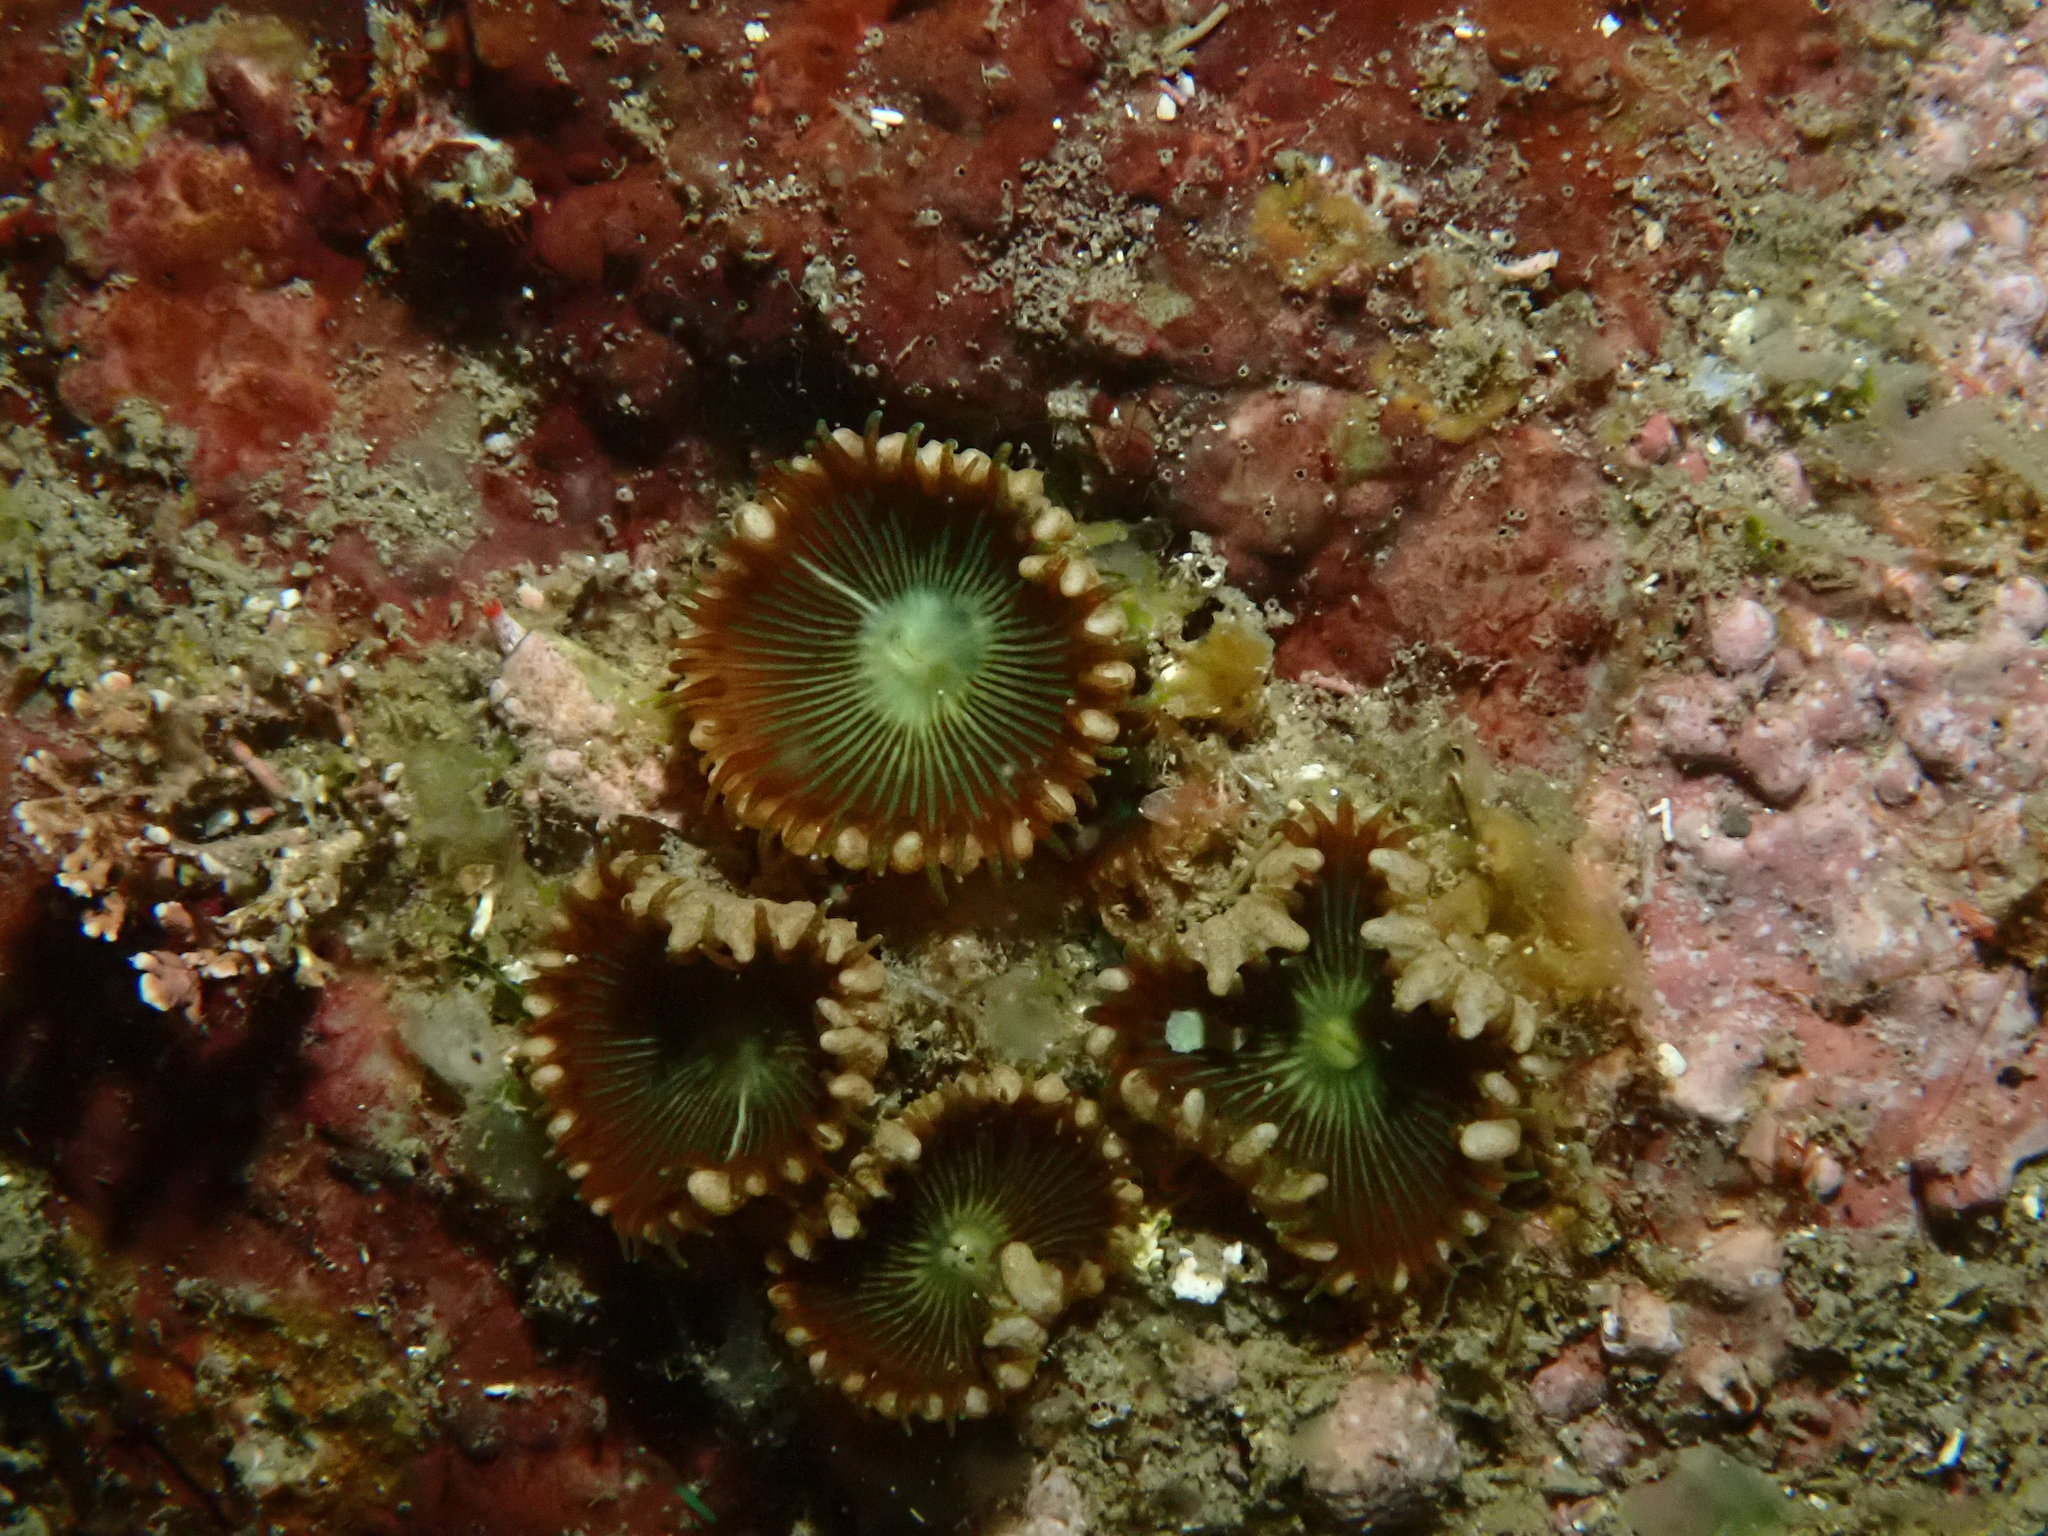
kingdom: Animalia
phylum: Cnidaria
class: Anthozoa
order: Zoantharia
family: Sphenopidae
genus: Palythoa
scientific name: Palythoa mutuki
